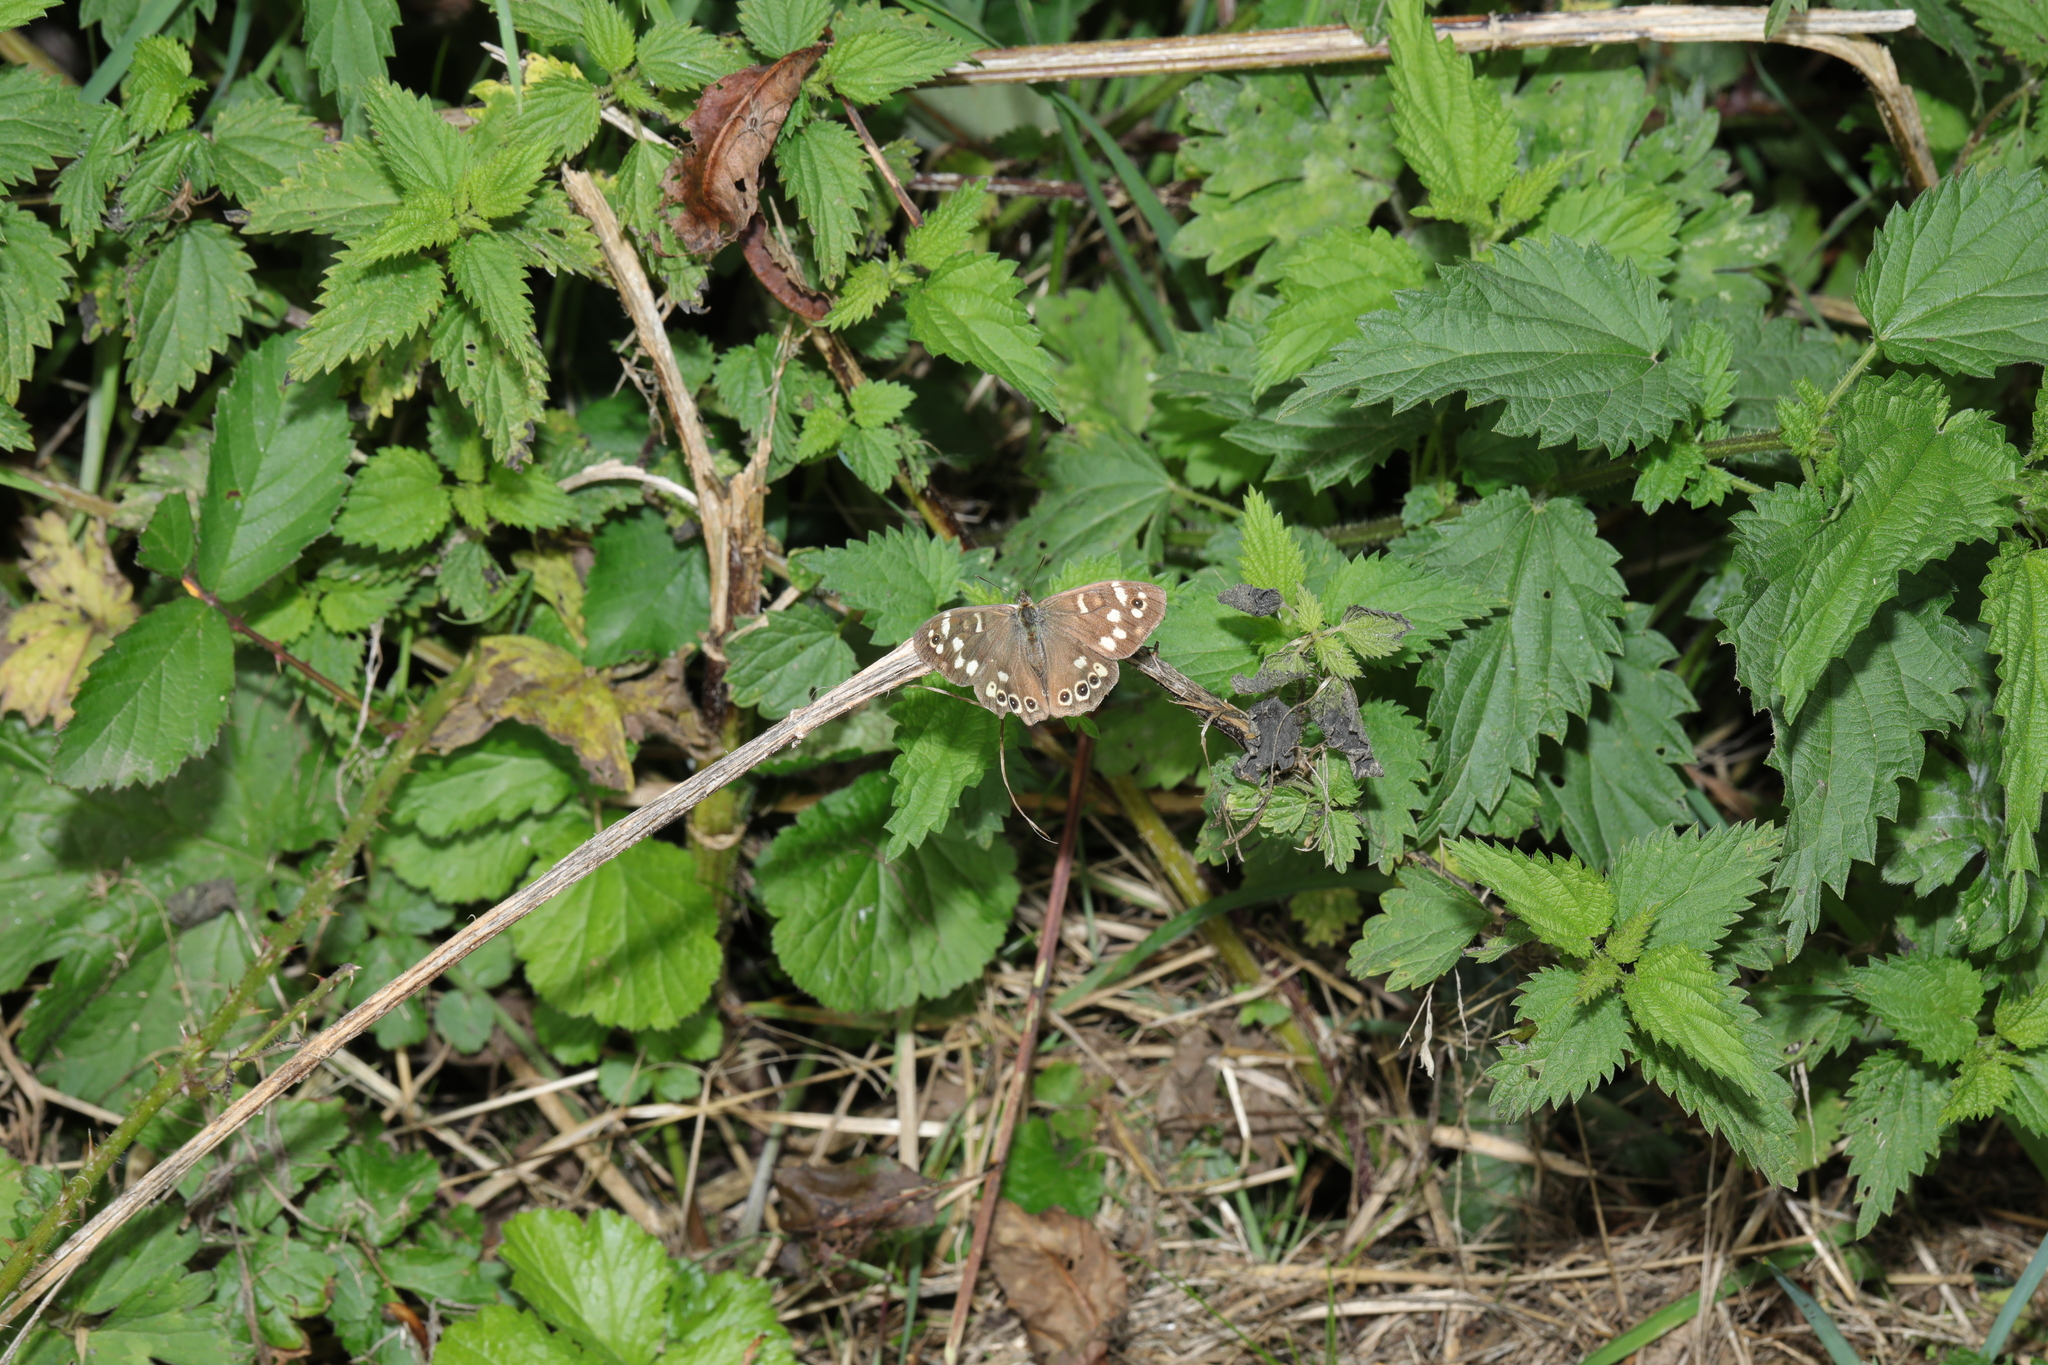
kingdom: Animalia
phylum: Arthropoda
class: Insecta
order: Lepidoptera
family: Nymphalidae
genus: Pararge
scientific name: Pararge aegeria
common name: Speckled wood
